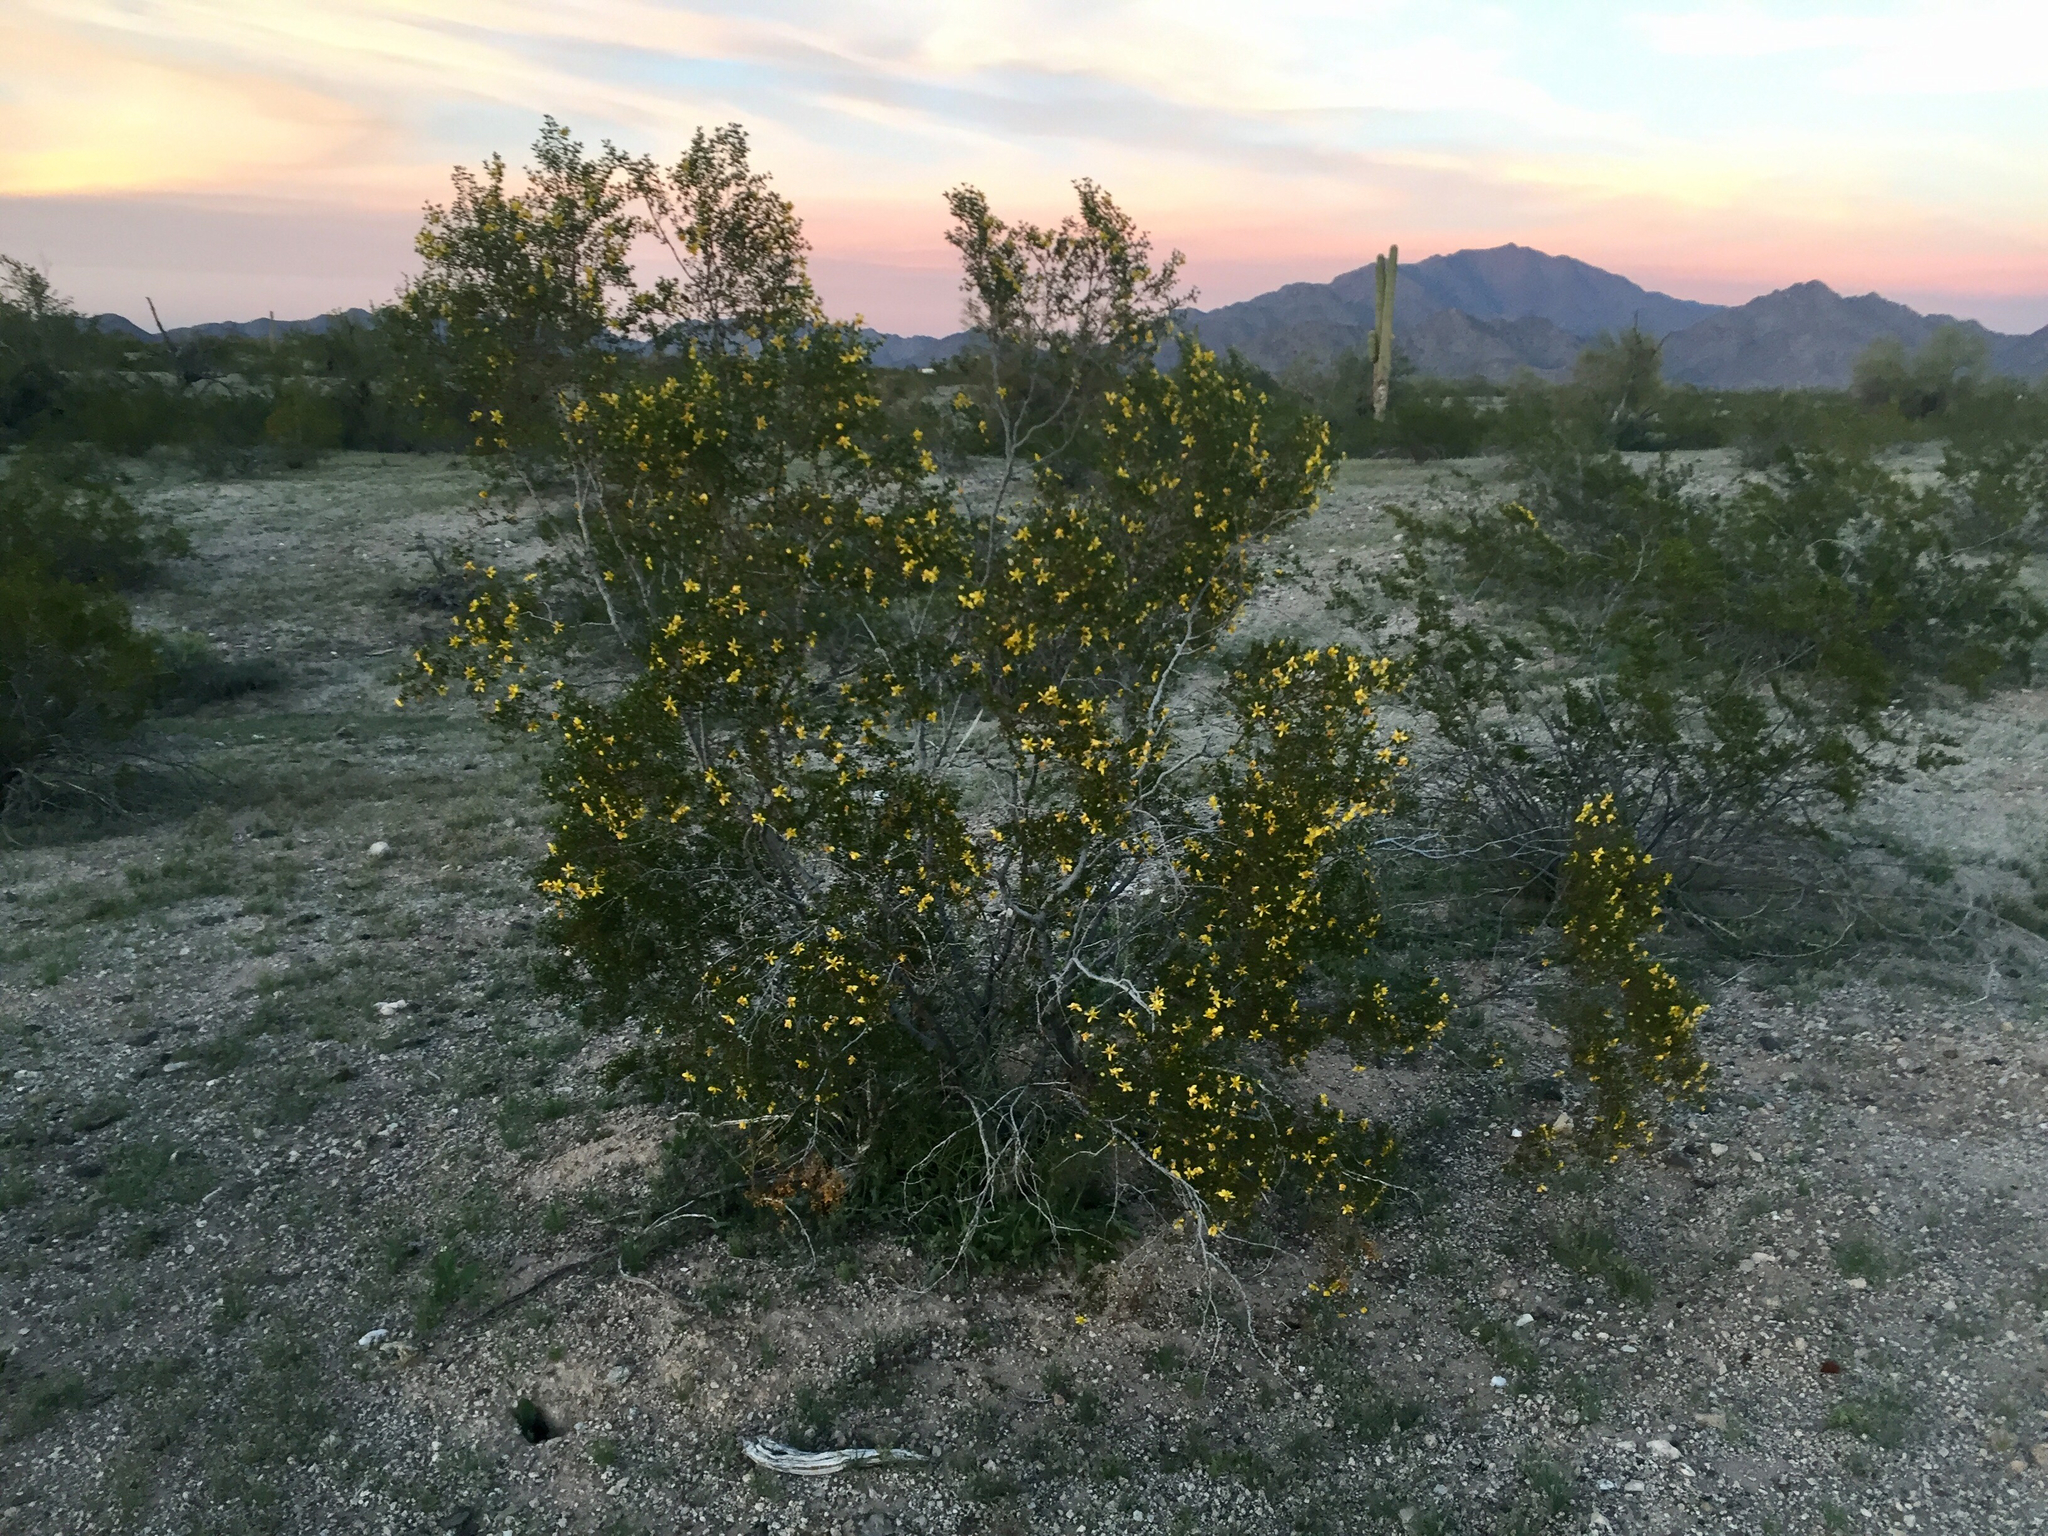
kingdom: Plantae
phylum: Tracheophyta
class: Magnoliopsida
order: Zygophyllales
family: Zygophyllaceae
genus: Larrea
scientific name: Larrea tridentata
